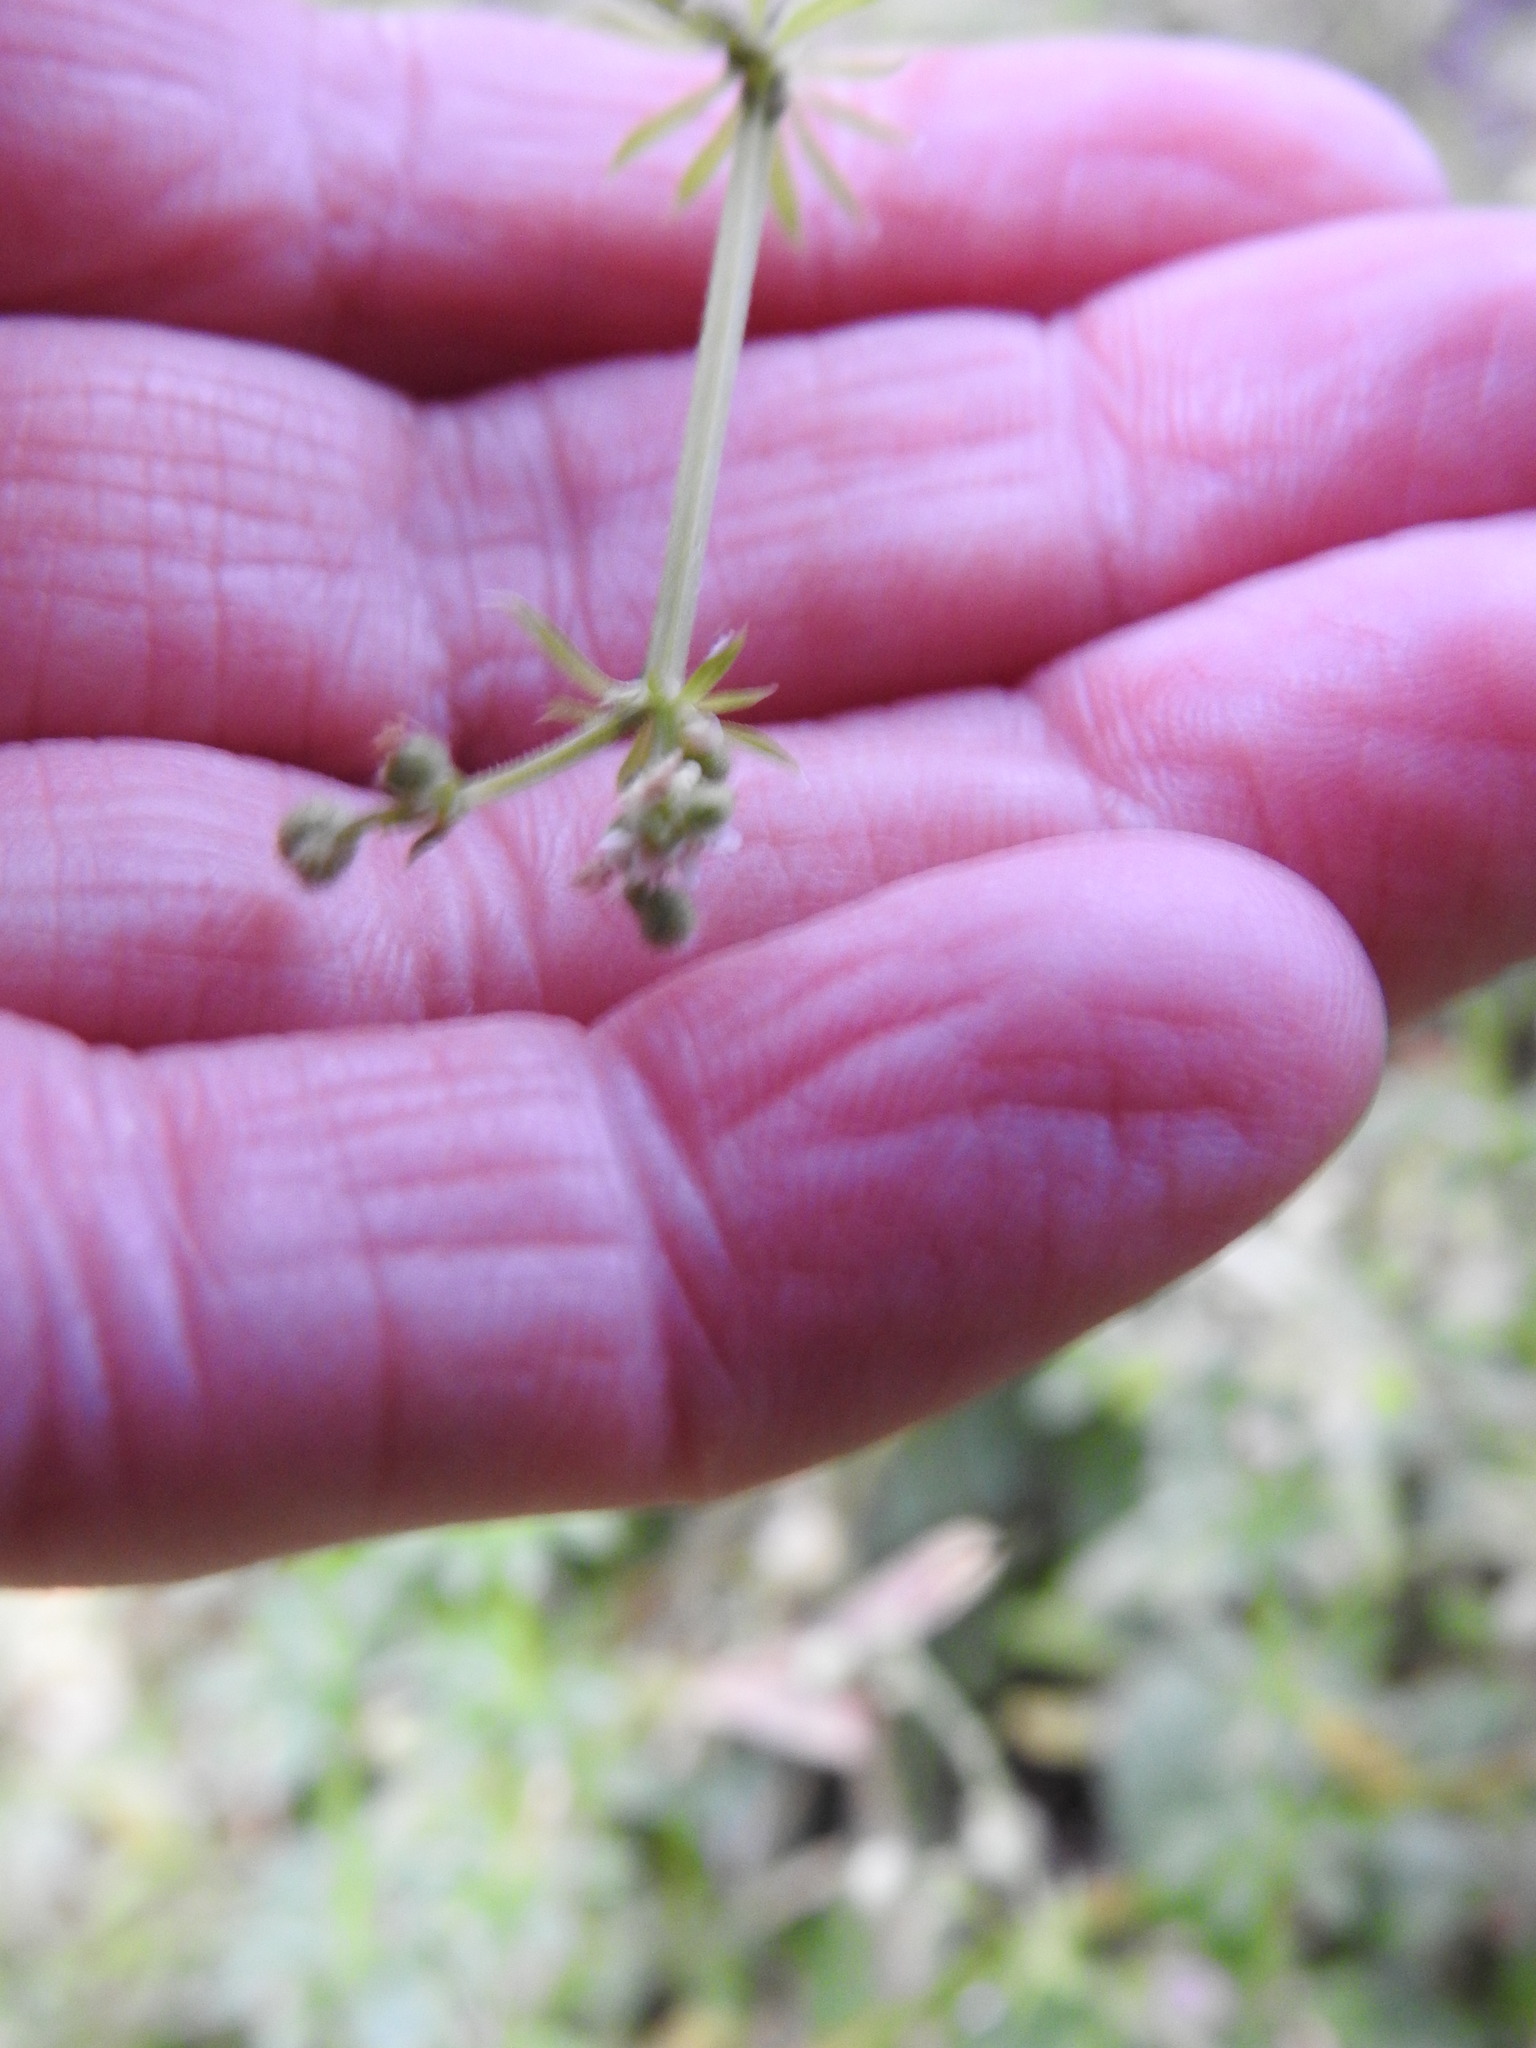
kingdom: Plantae
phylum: Tracheophyta
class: Magnoliopsida
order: Gentianales
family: Rubiaceae
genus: Galium
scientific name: Galium aparine
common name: Cleavers
